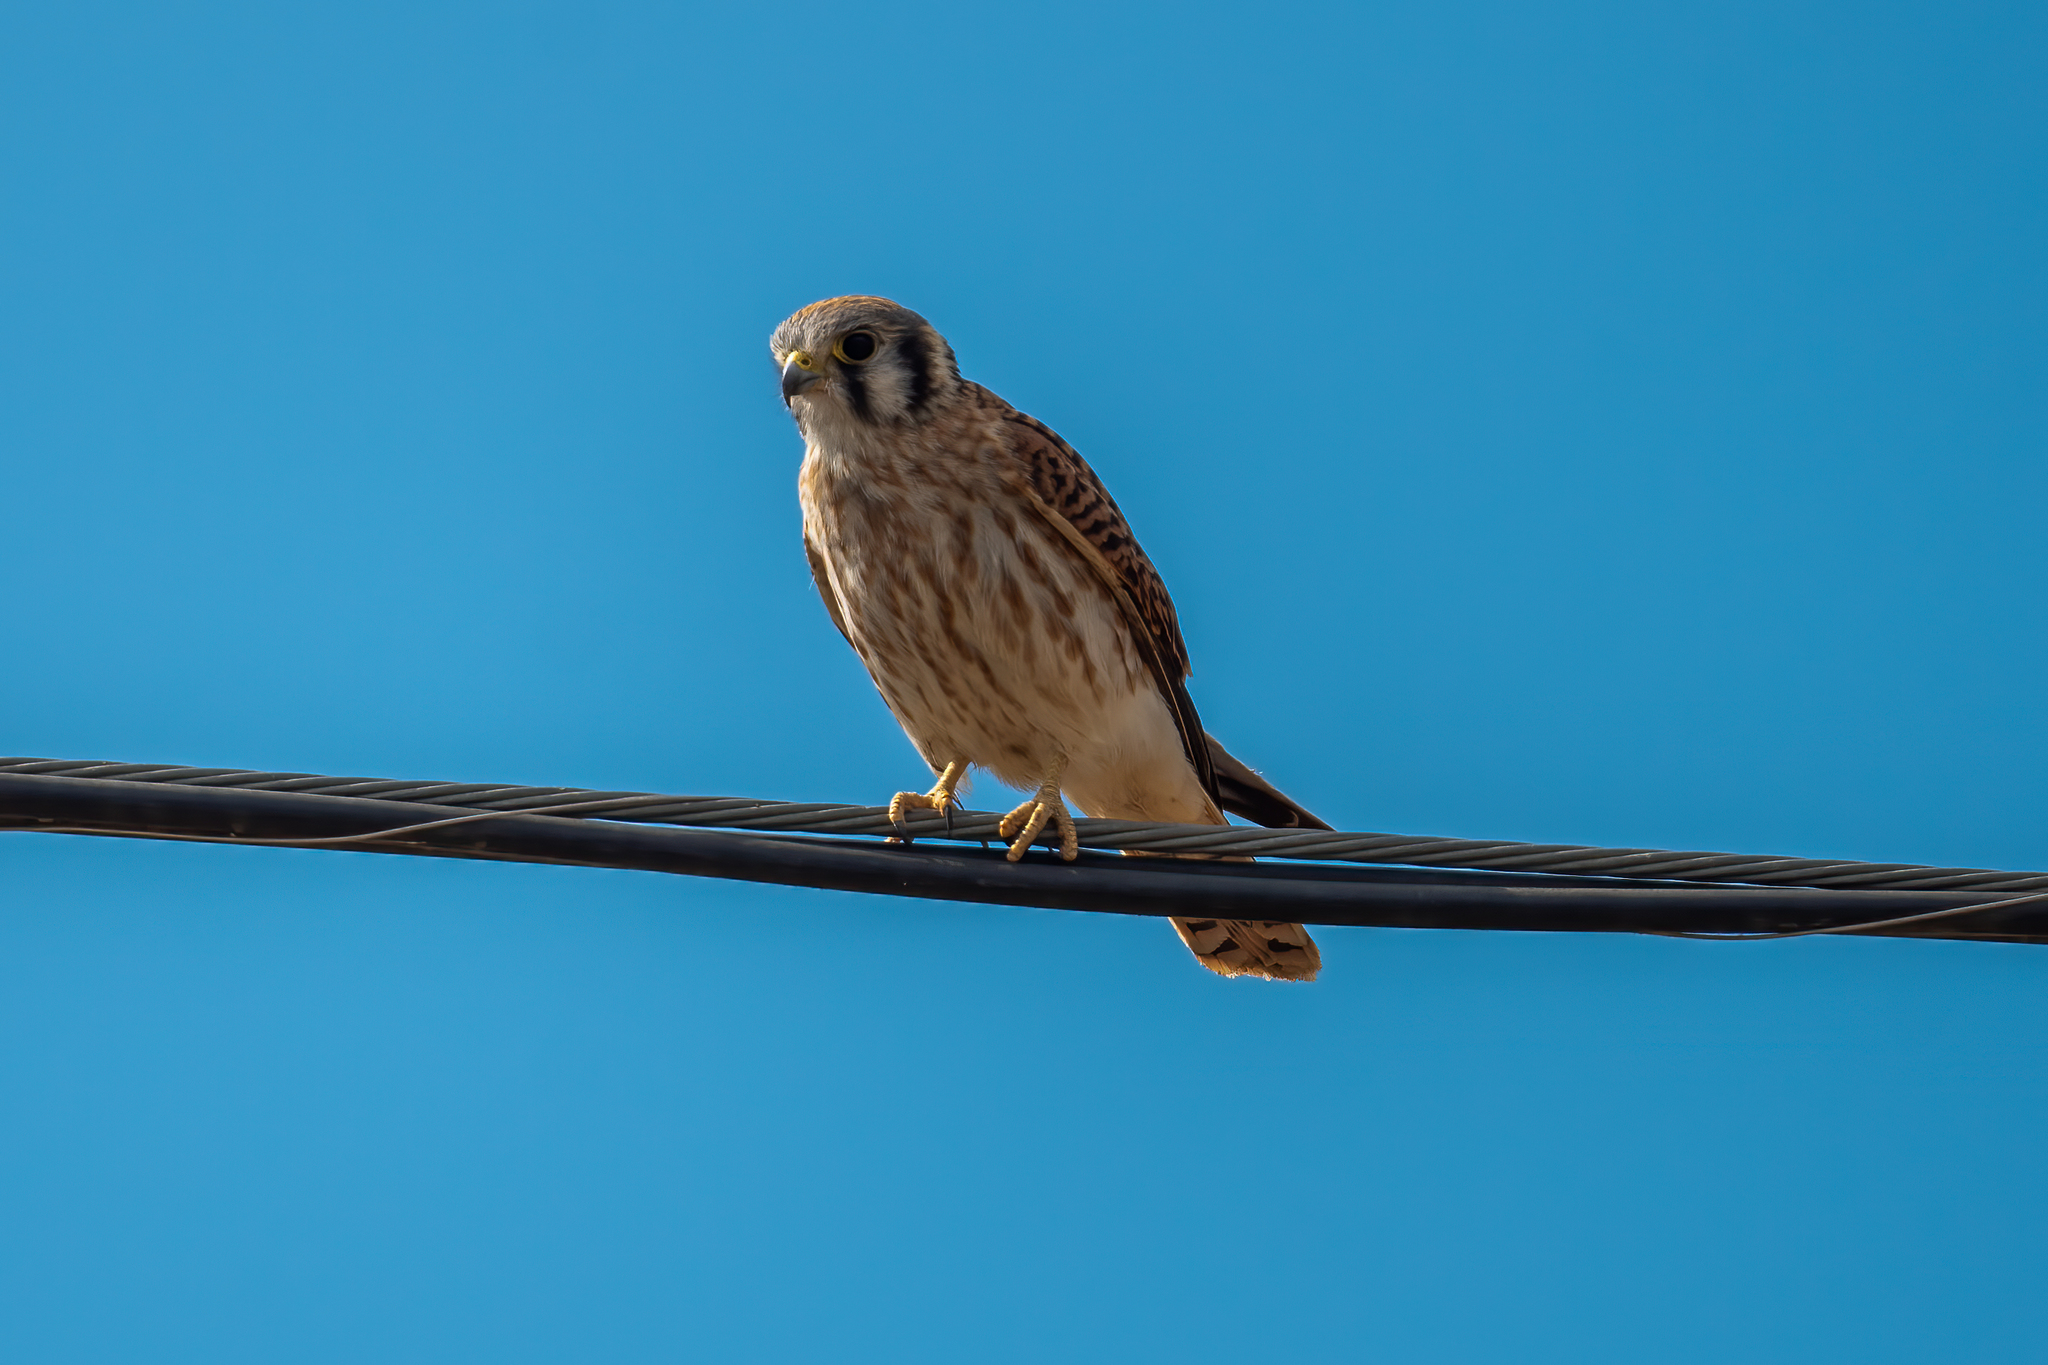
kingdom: Animalia
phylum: Chordata
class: Aves
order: Falconiformes
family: Falconidae
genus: Falco
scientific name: Falco sparverius
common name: American kestrel
